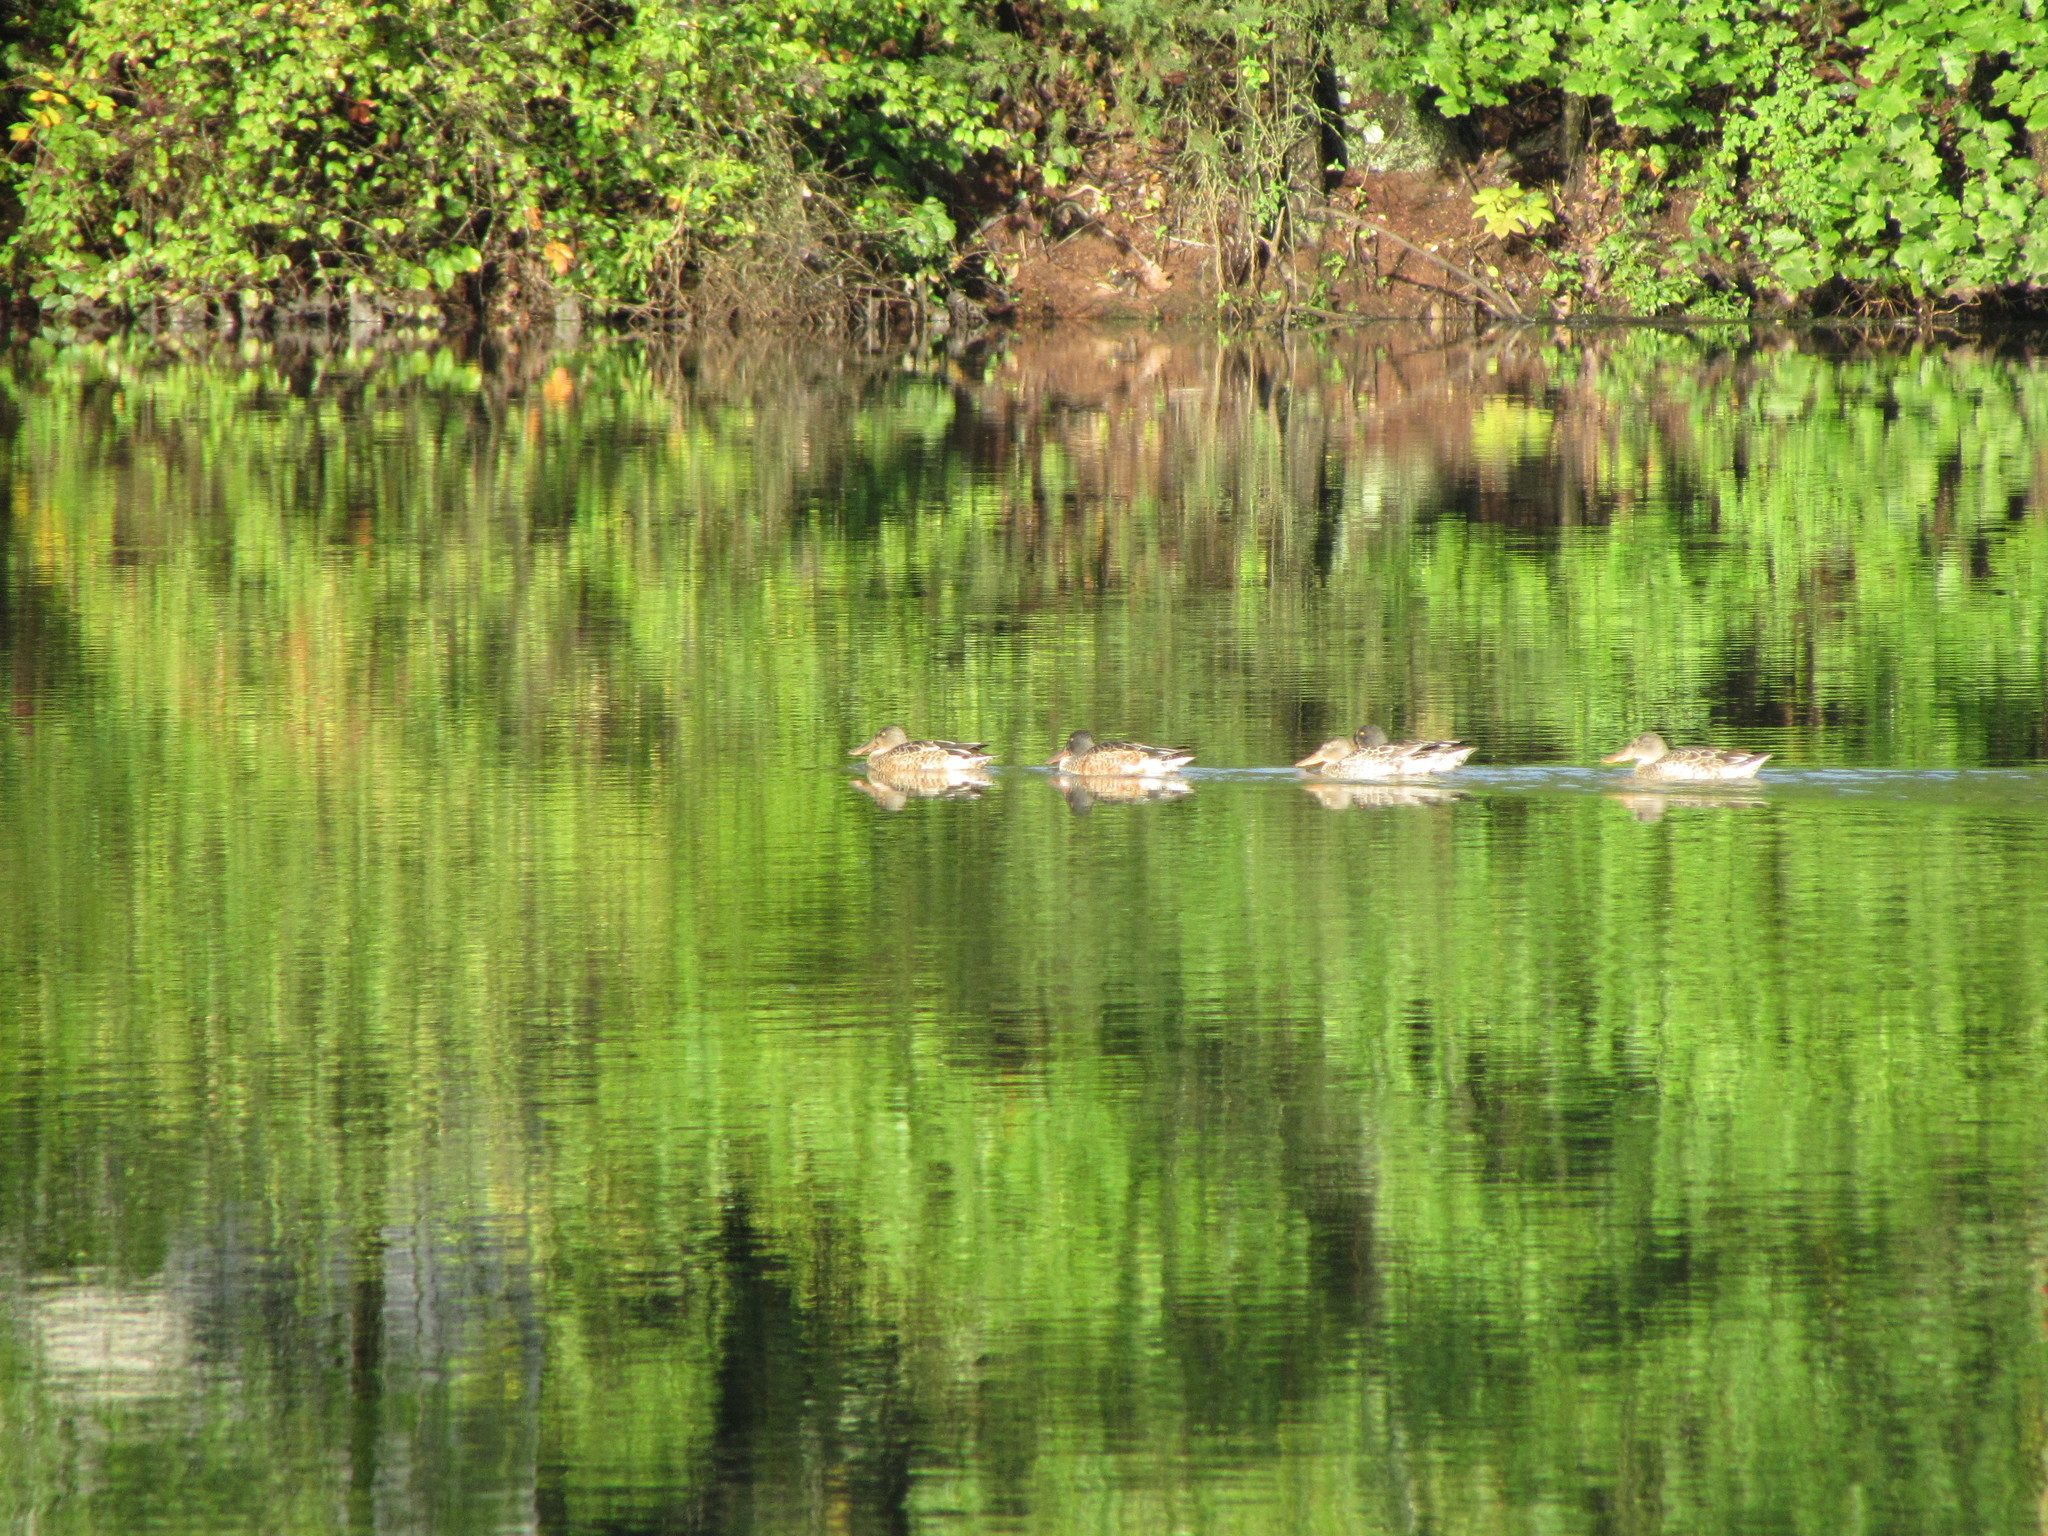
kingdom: Animalia
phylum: Chordata
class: Aves
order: Anseriformes
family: Anatidae
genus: Spatula
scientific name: Spatula clypeata
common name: Northern shoveler
